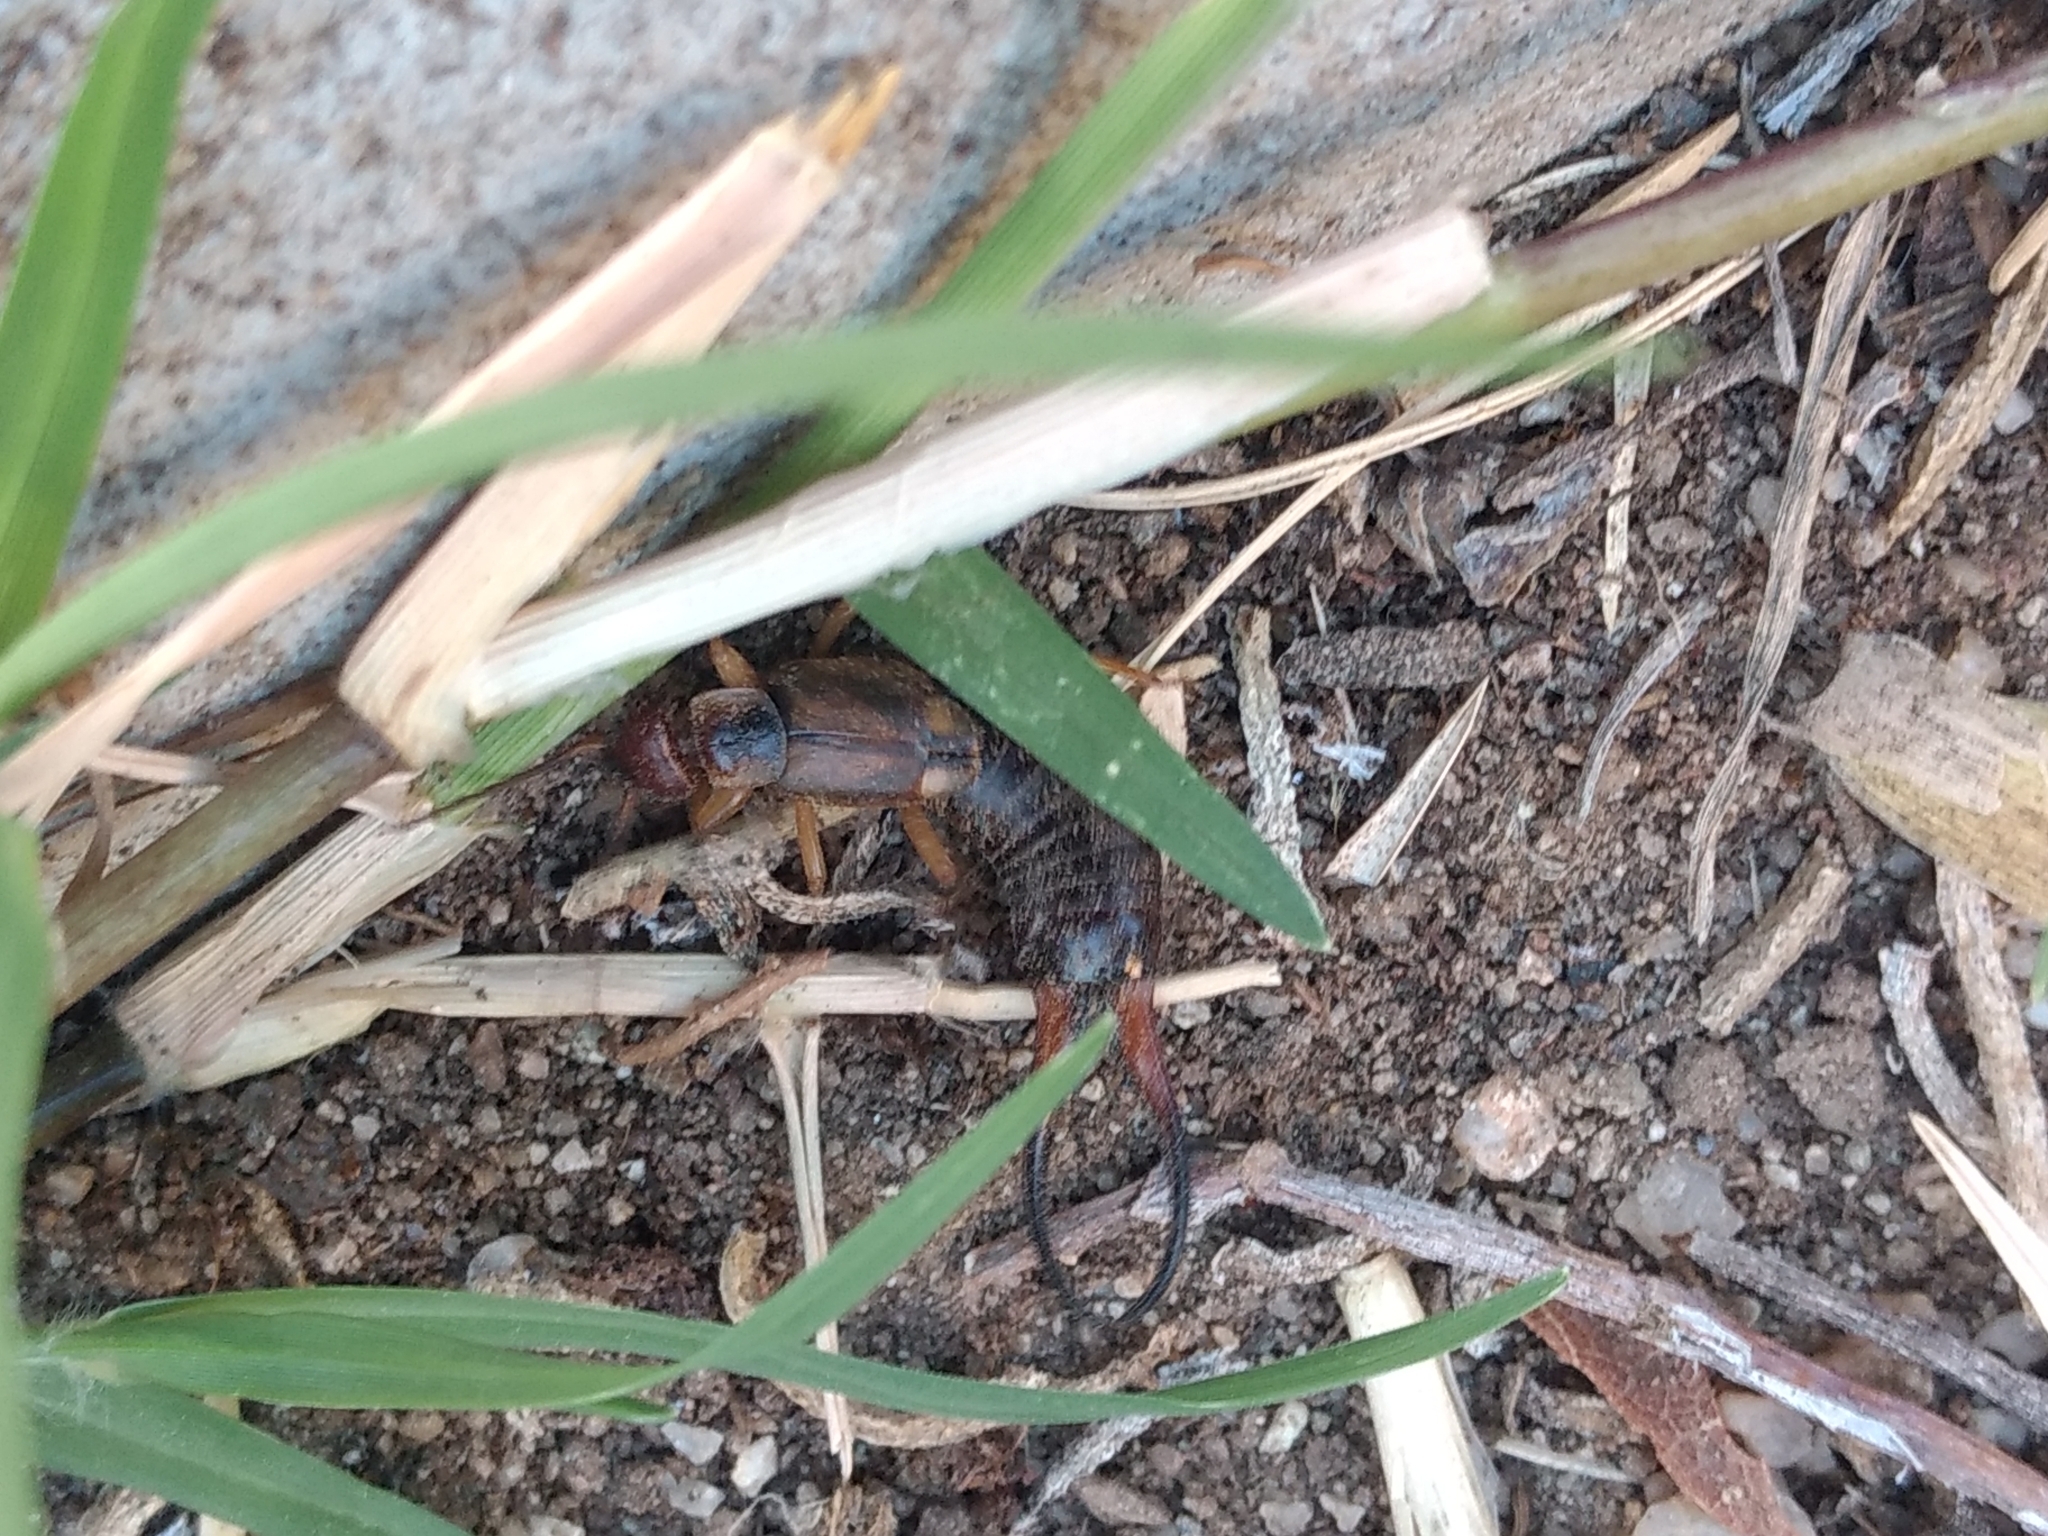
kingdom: Animalia
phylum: Arthropoda
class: Insecta
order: Dermaptera
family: Forficulidae
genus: Forficula
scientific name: Forficula
